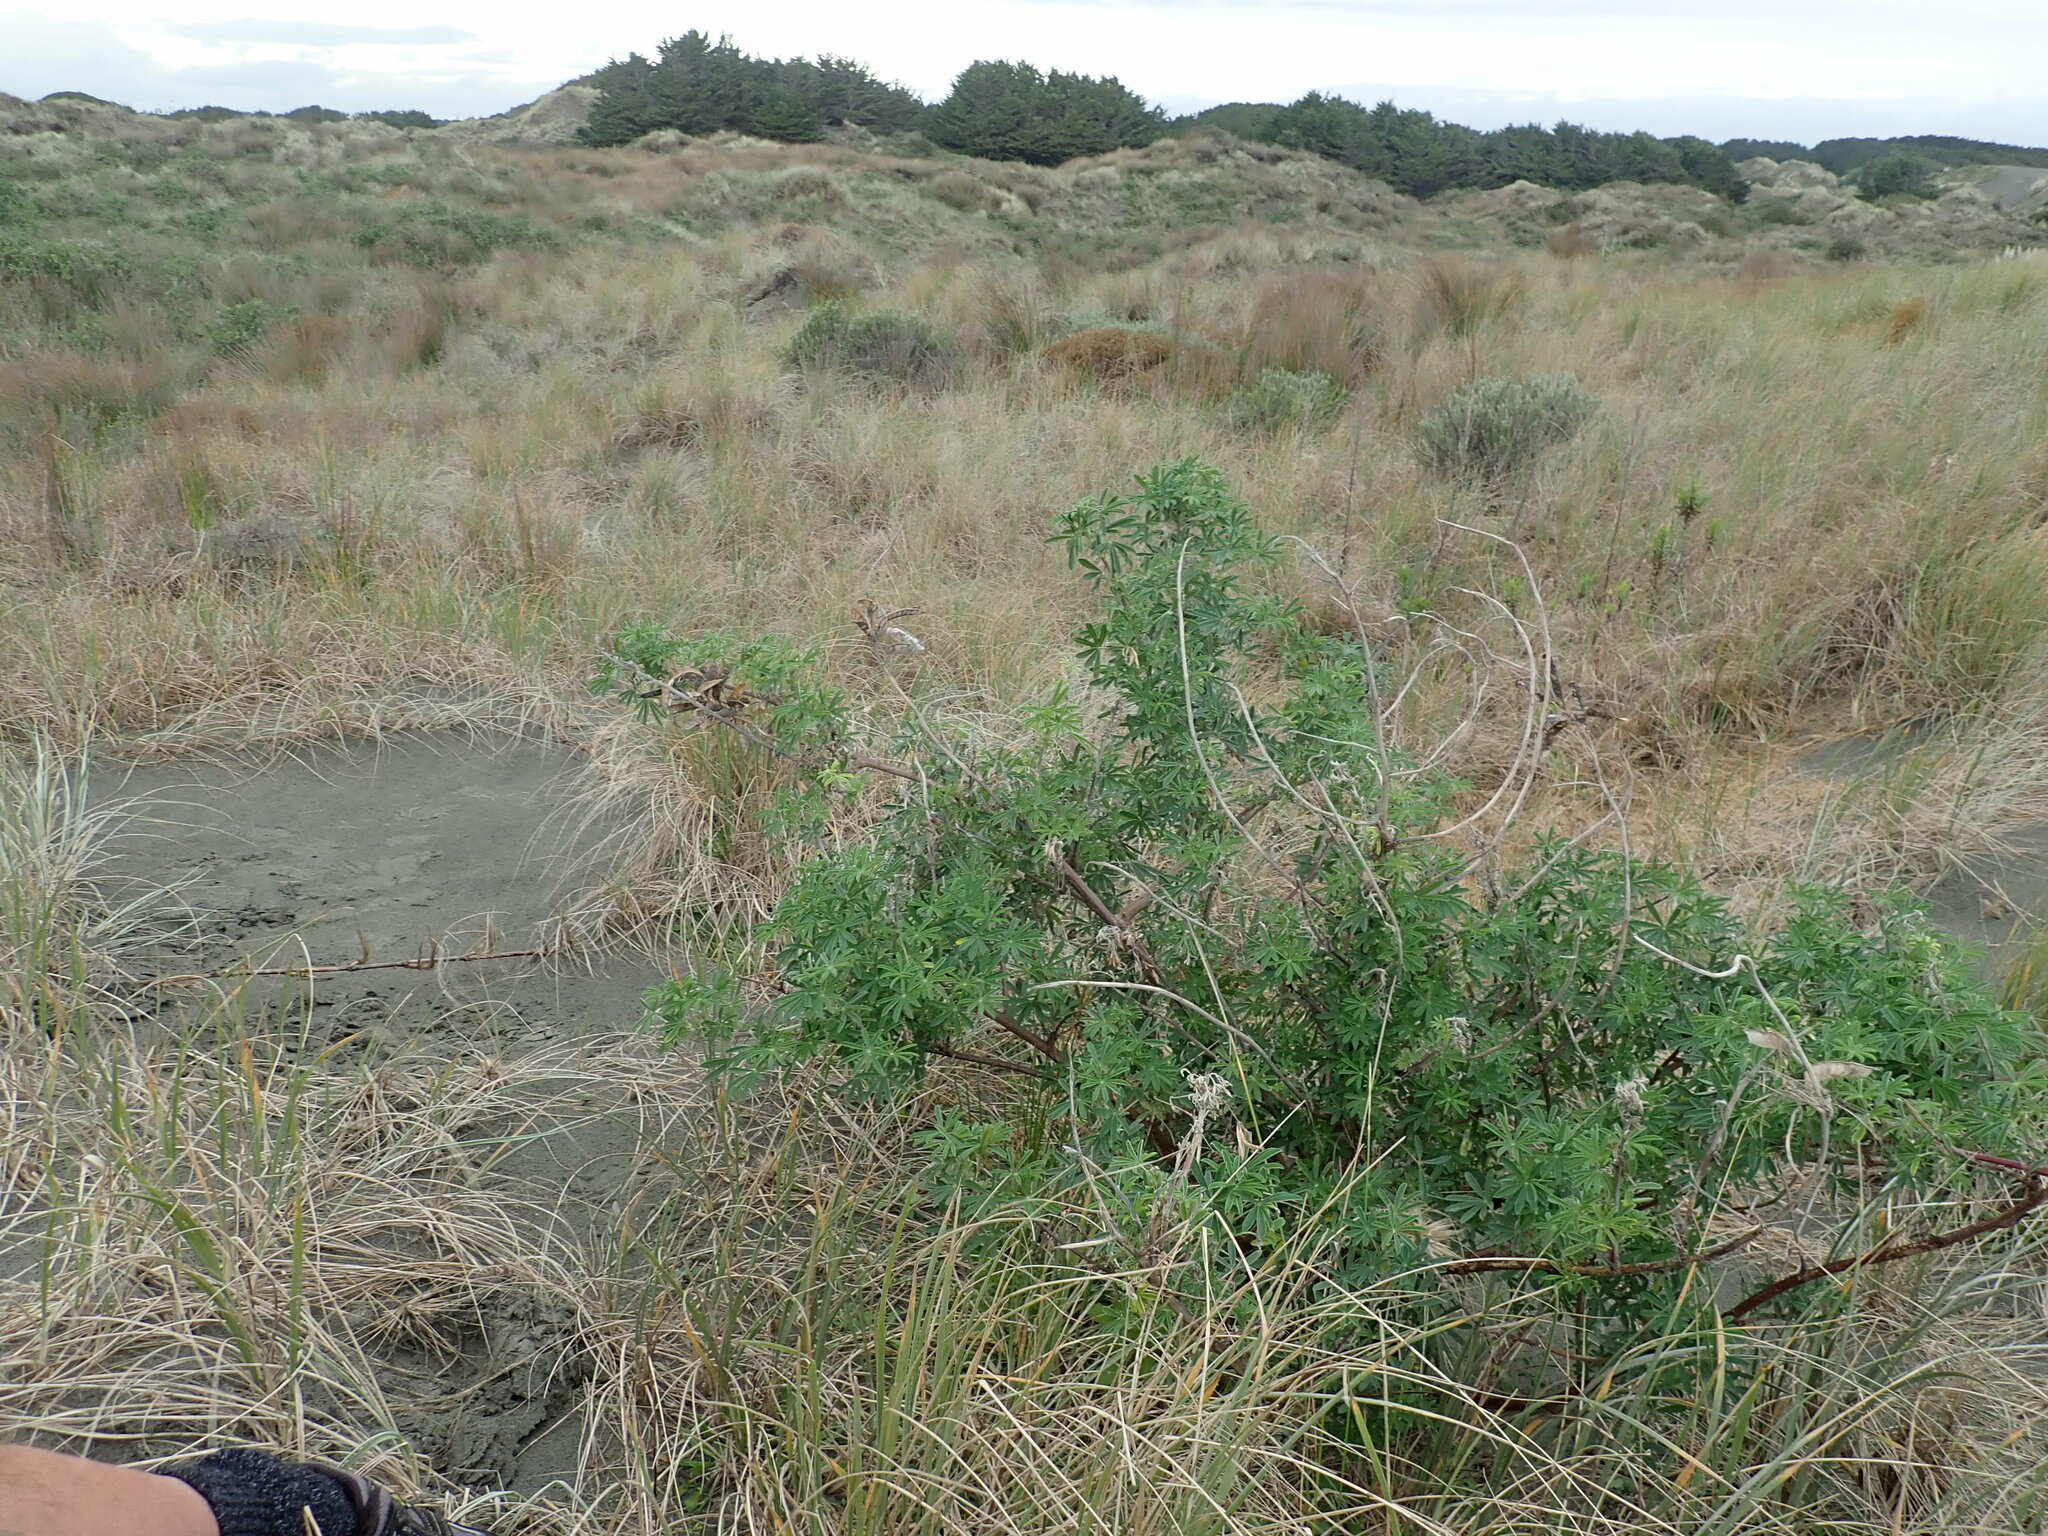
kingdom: Plantae
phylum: Tracheophyta
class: Magnoliopsida
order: Fabales
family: Fabaceae
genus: Lupinus
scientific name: Lupinus arboreus
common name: Yellow bush lupine
